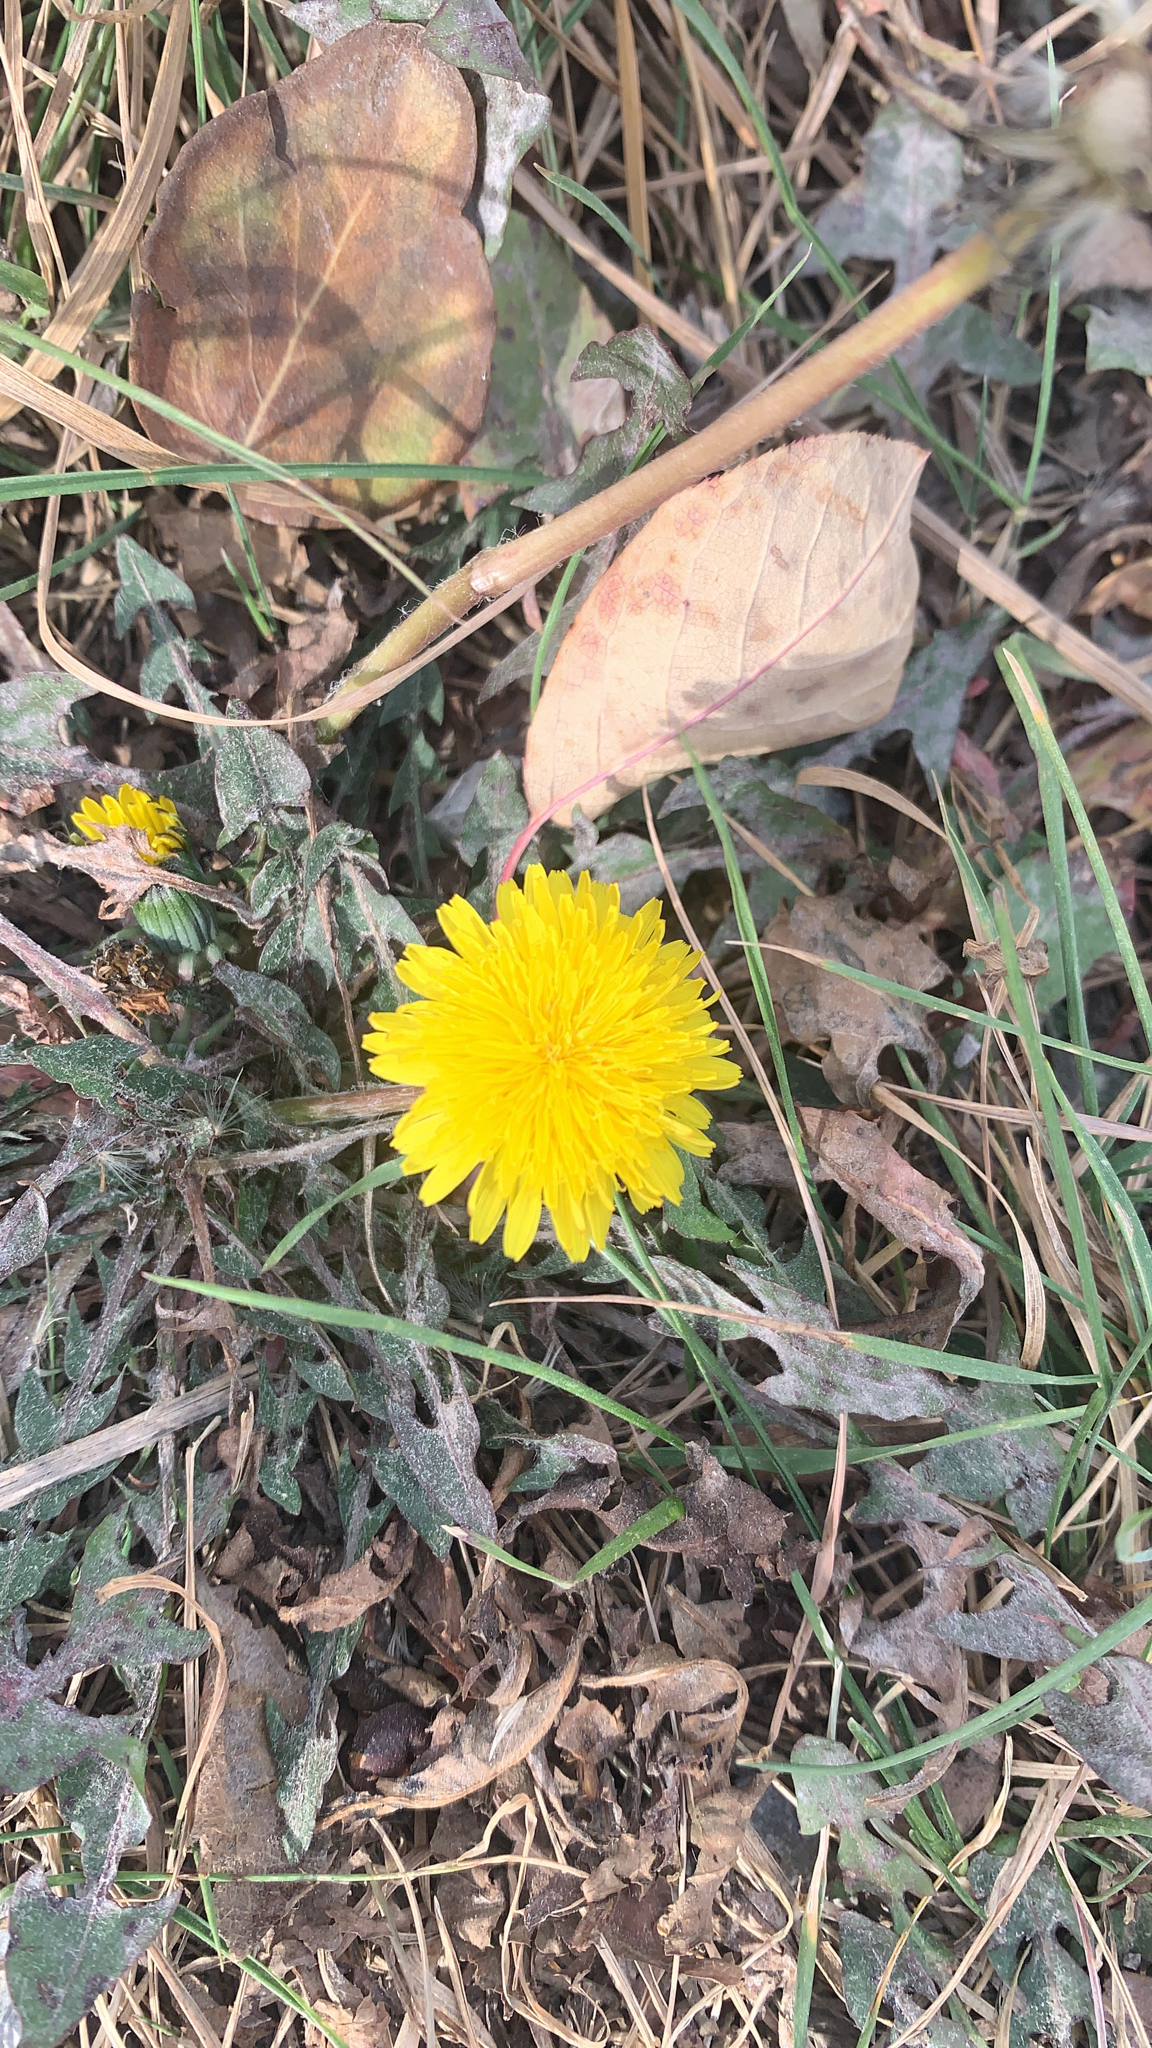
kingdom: Plantae
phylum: Tracheophyta
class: Magnoliopsida
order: Asterales
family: Asteraceae
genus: Taraxacum
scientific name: Taraxacum officinale
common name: Common dandelion
